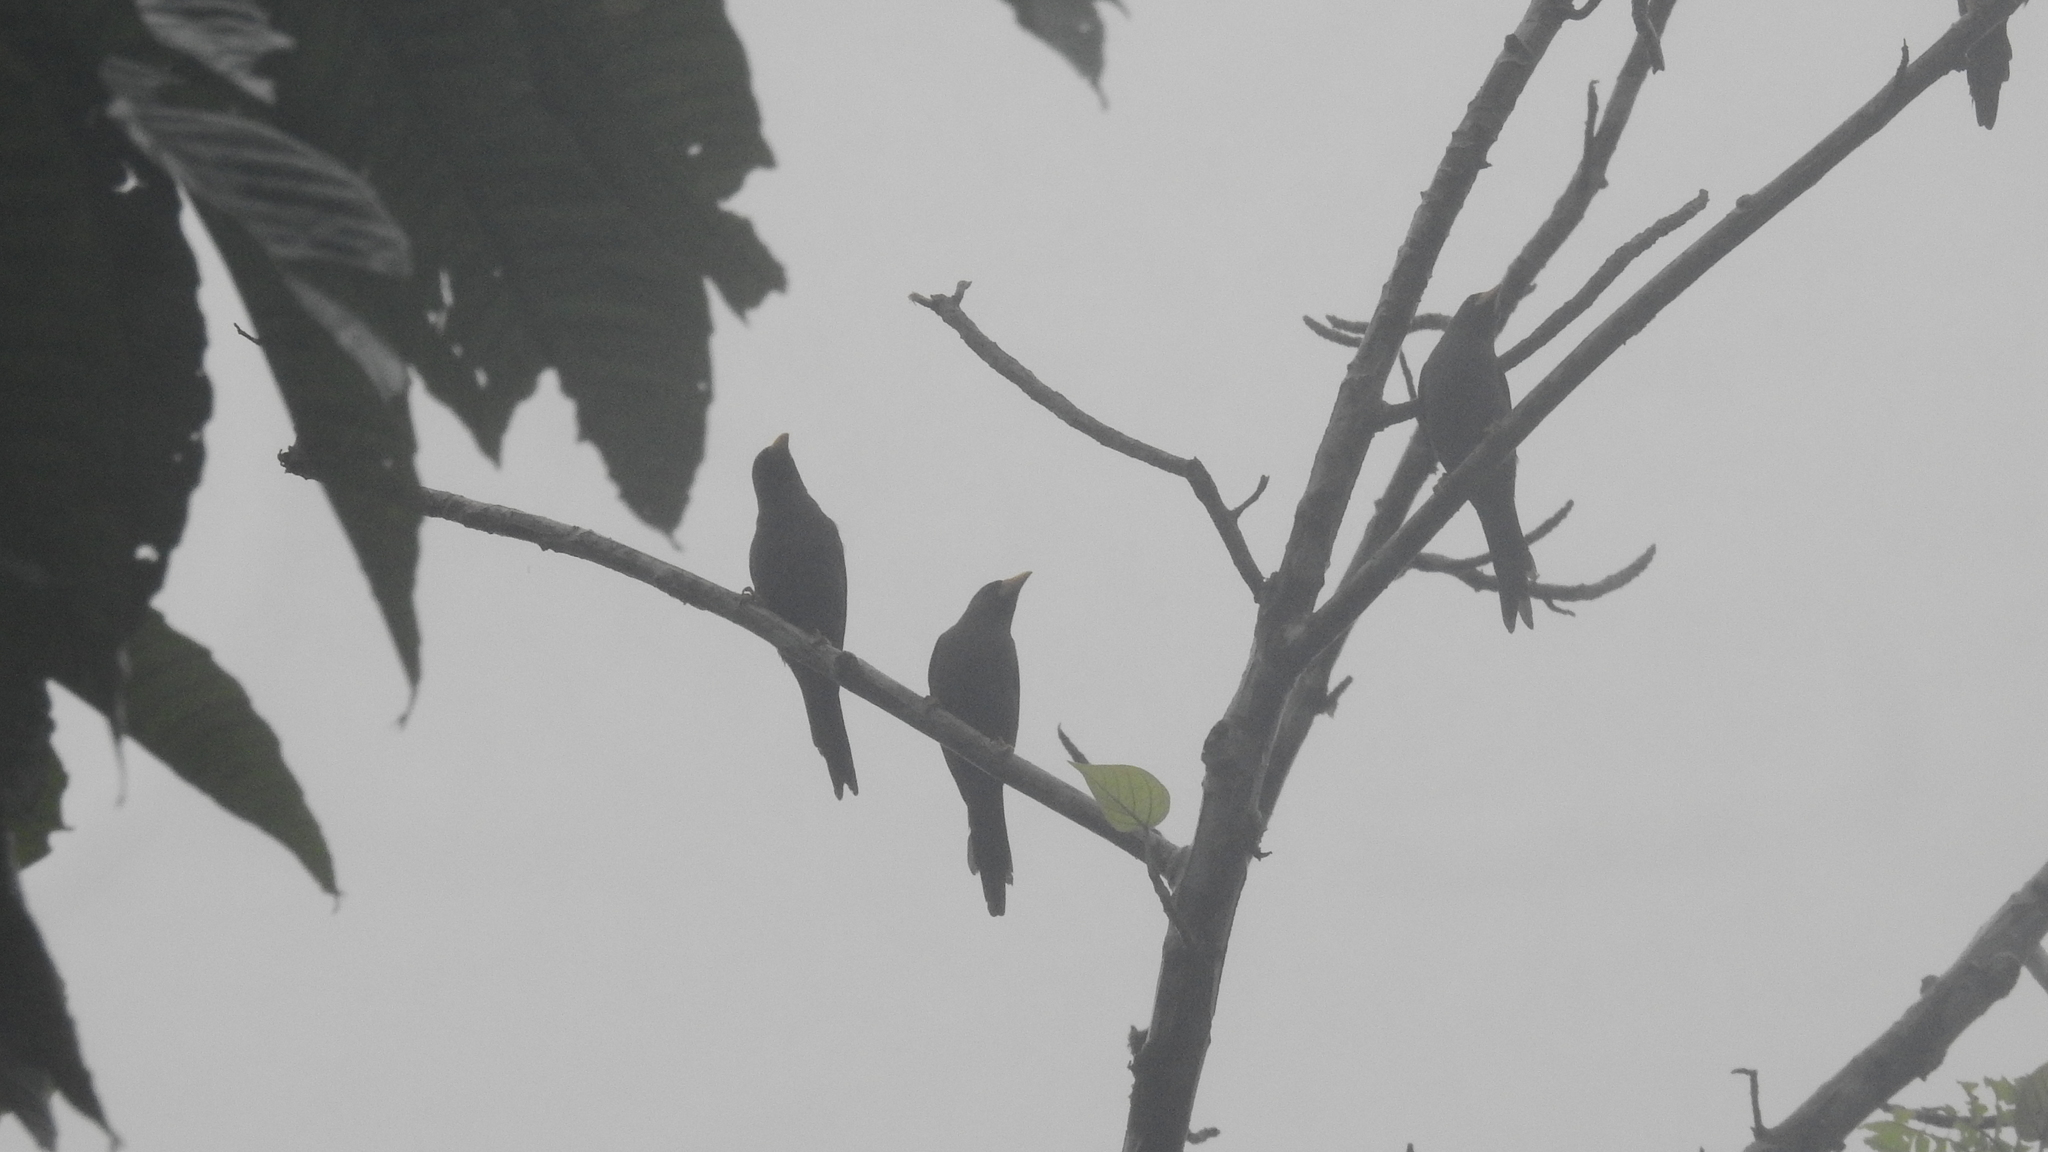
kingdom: Animalia
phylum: Chordata
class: Aves
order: Passeriformes
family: Sturnidae
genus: Scissirostrum
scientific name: Scissirostrum dubium
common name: Grosbeak starling
